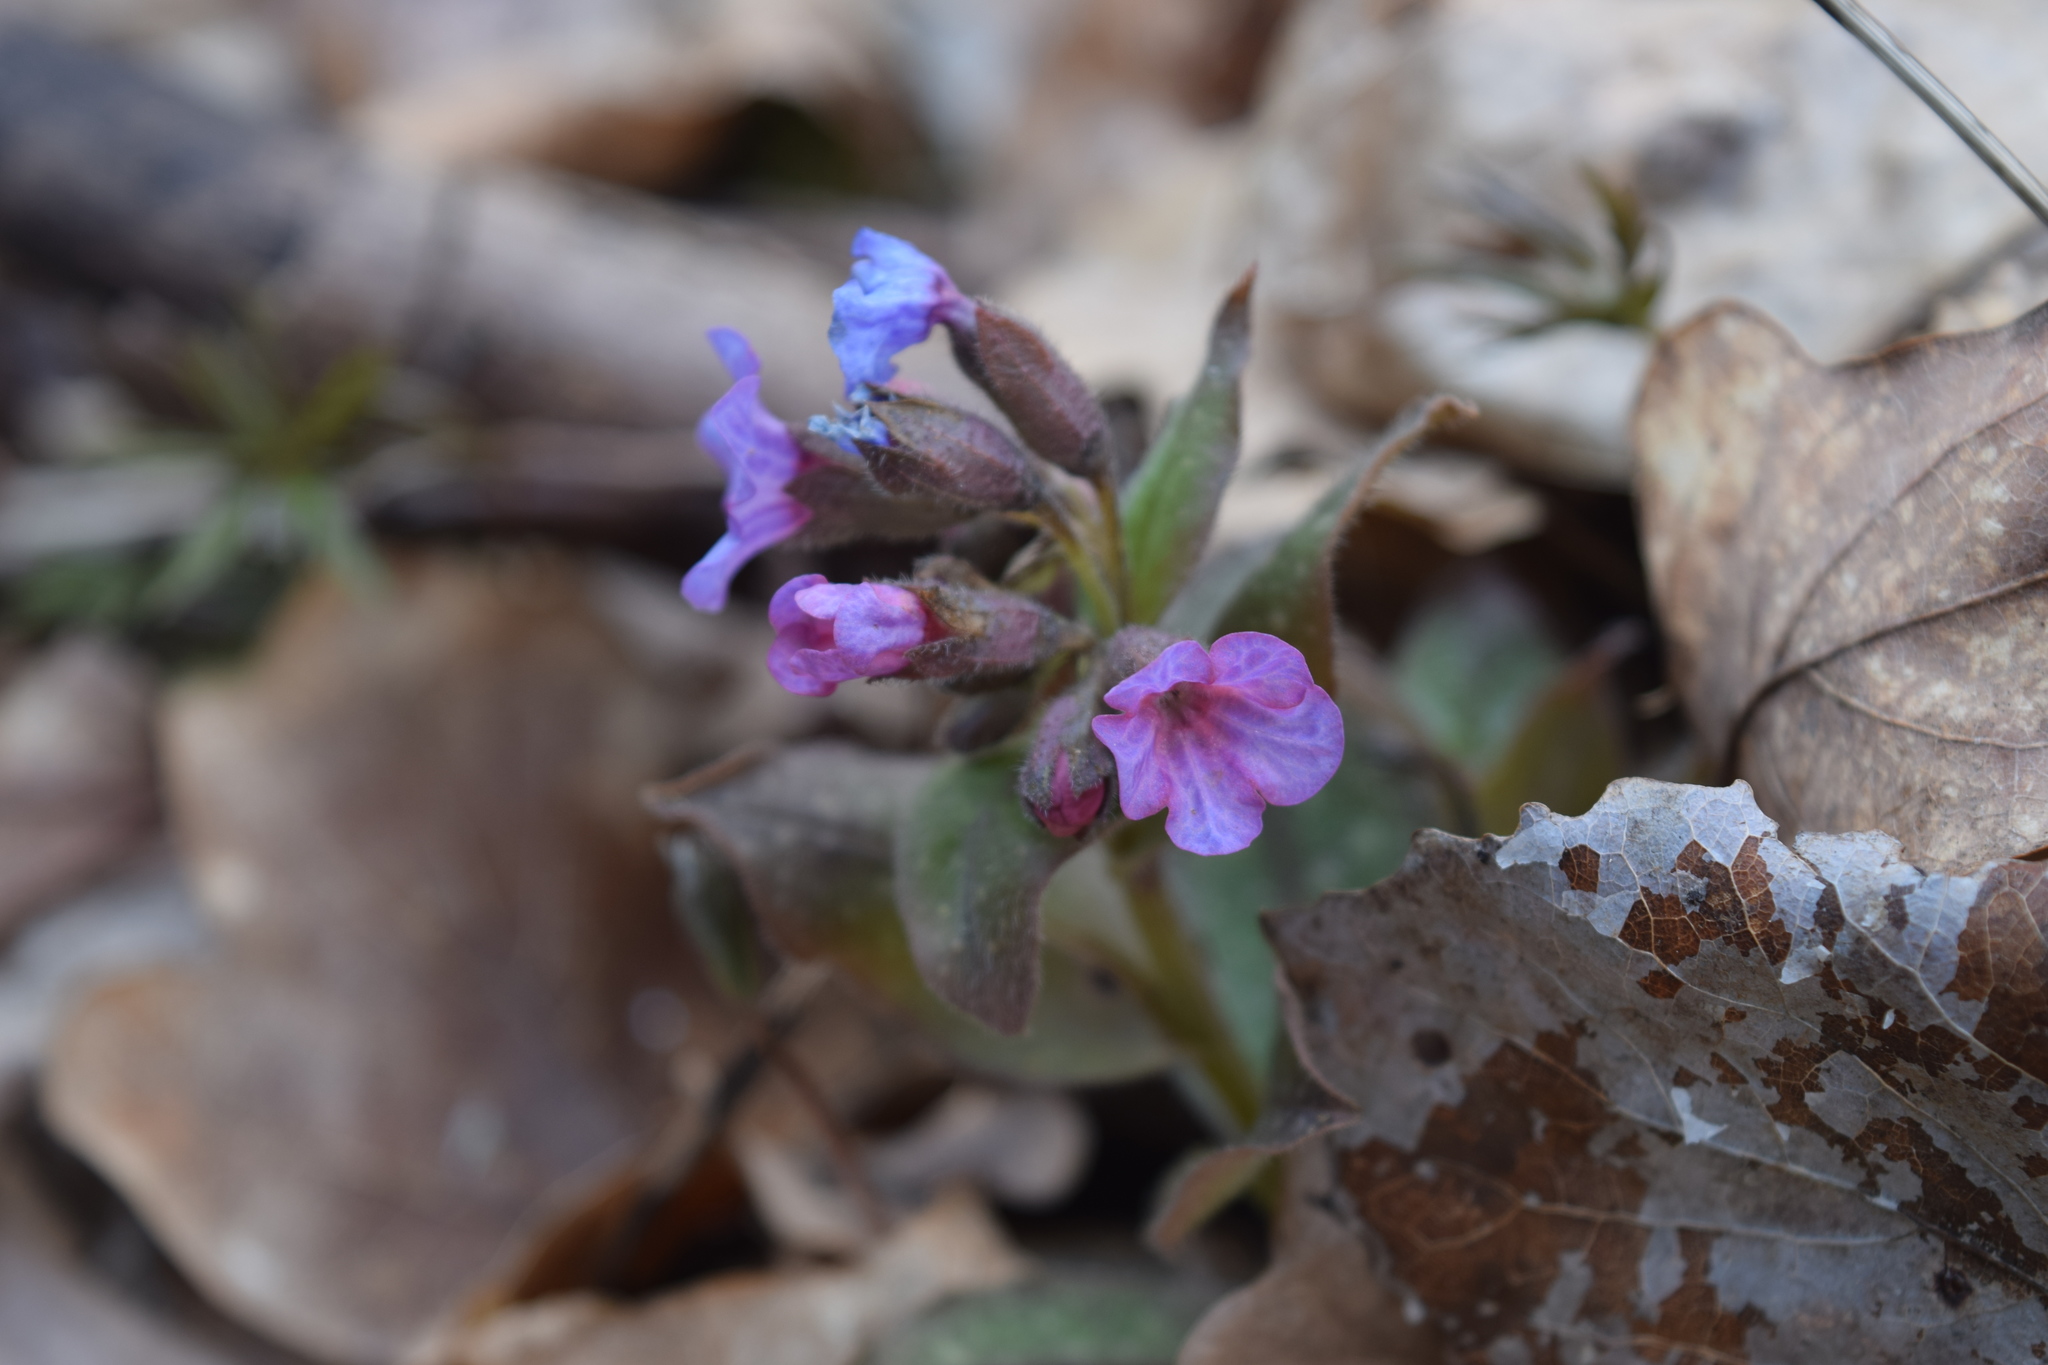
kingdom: Plantae
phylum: Tracheophyta
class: Magnoliopsida
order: Boraginales
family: Boraginaceae
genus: Pulmonaria
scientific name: Pulmonaria obscura
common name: Suffolk lungwort
